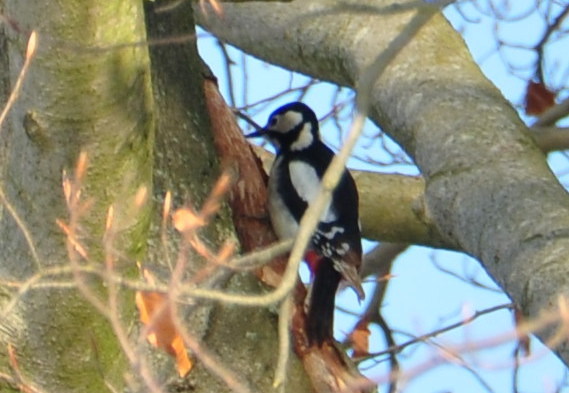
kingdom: Animalia
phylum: Chordata
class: Aves
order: Piciformes
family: Picidae
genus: Dendrocopos
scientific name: Dendrocopos major
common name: Great spotted woodpecker
